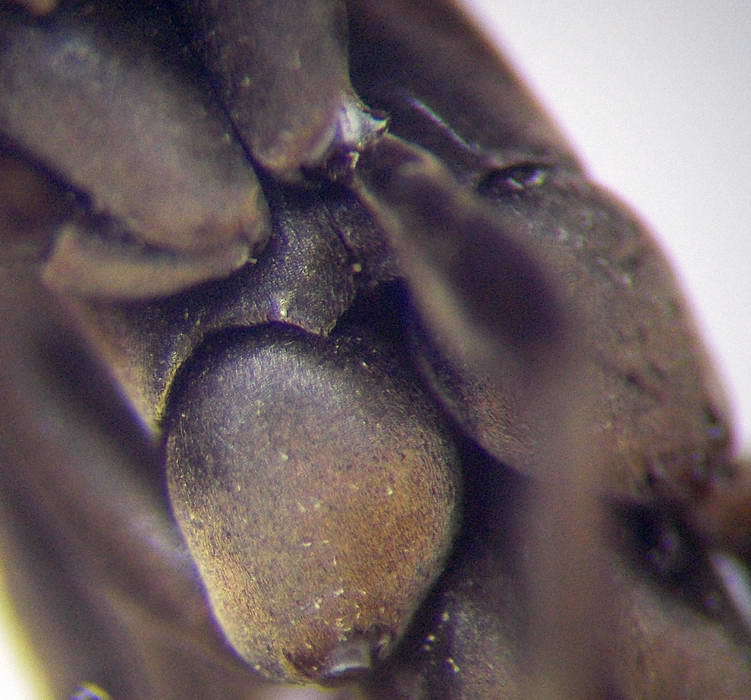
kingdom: Animalia
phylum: Arthropoda
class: Insecta
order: Hymenoptera
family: Pompilidae
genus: Eoferreola
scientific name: Eoferreola manticata
